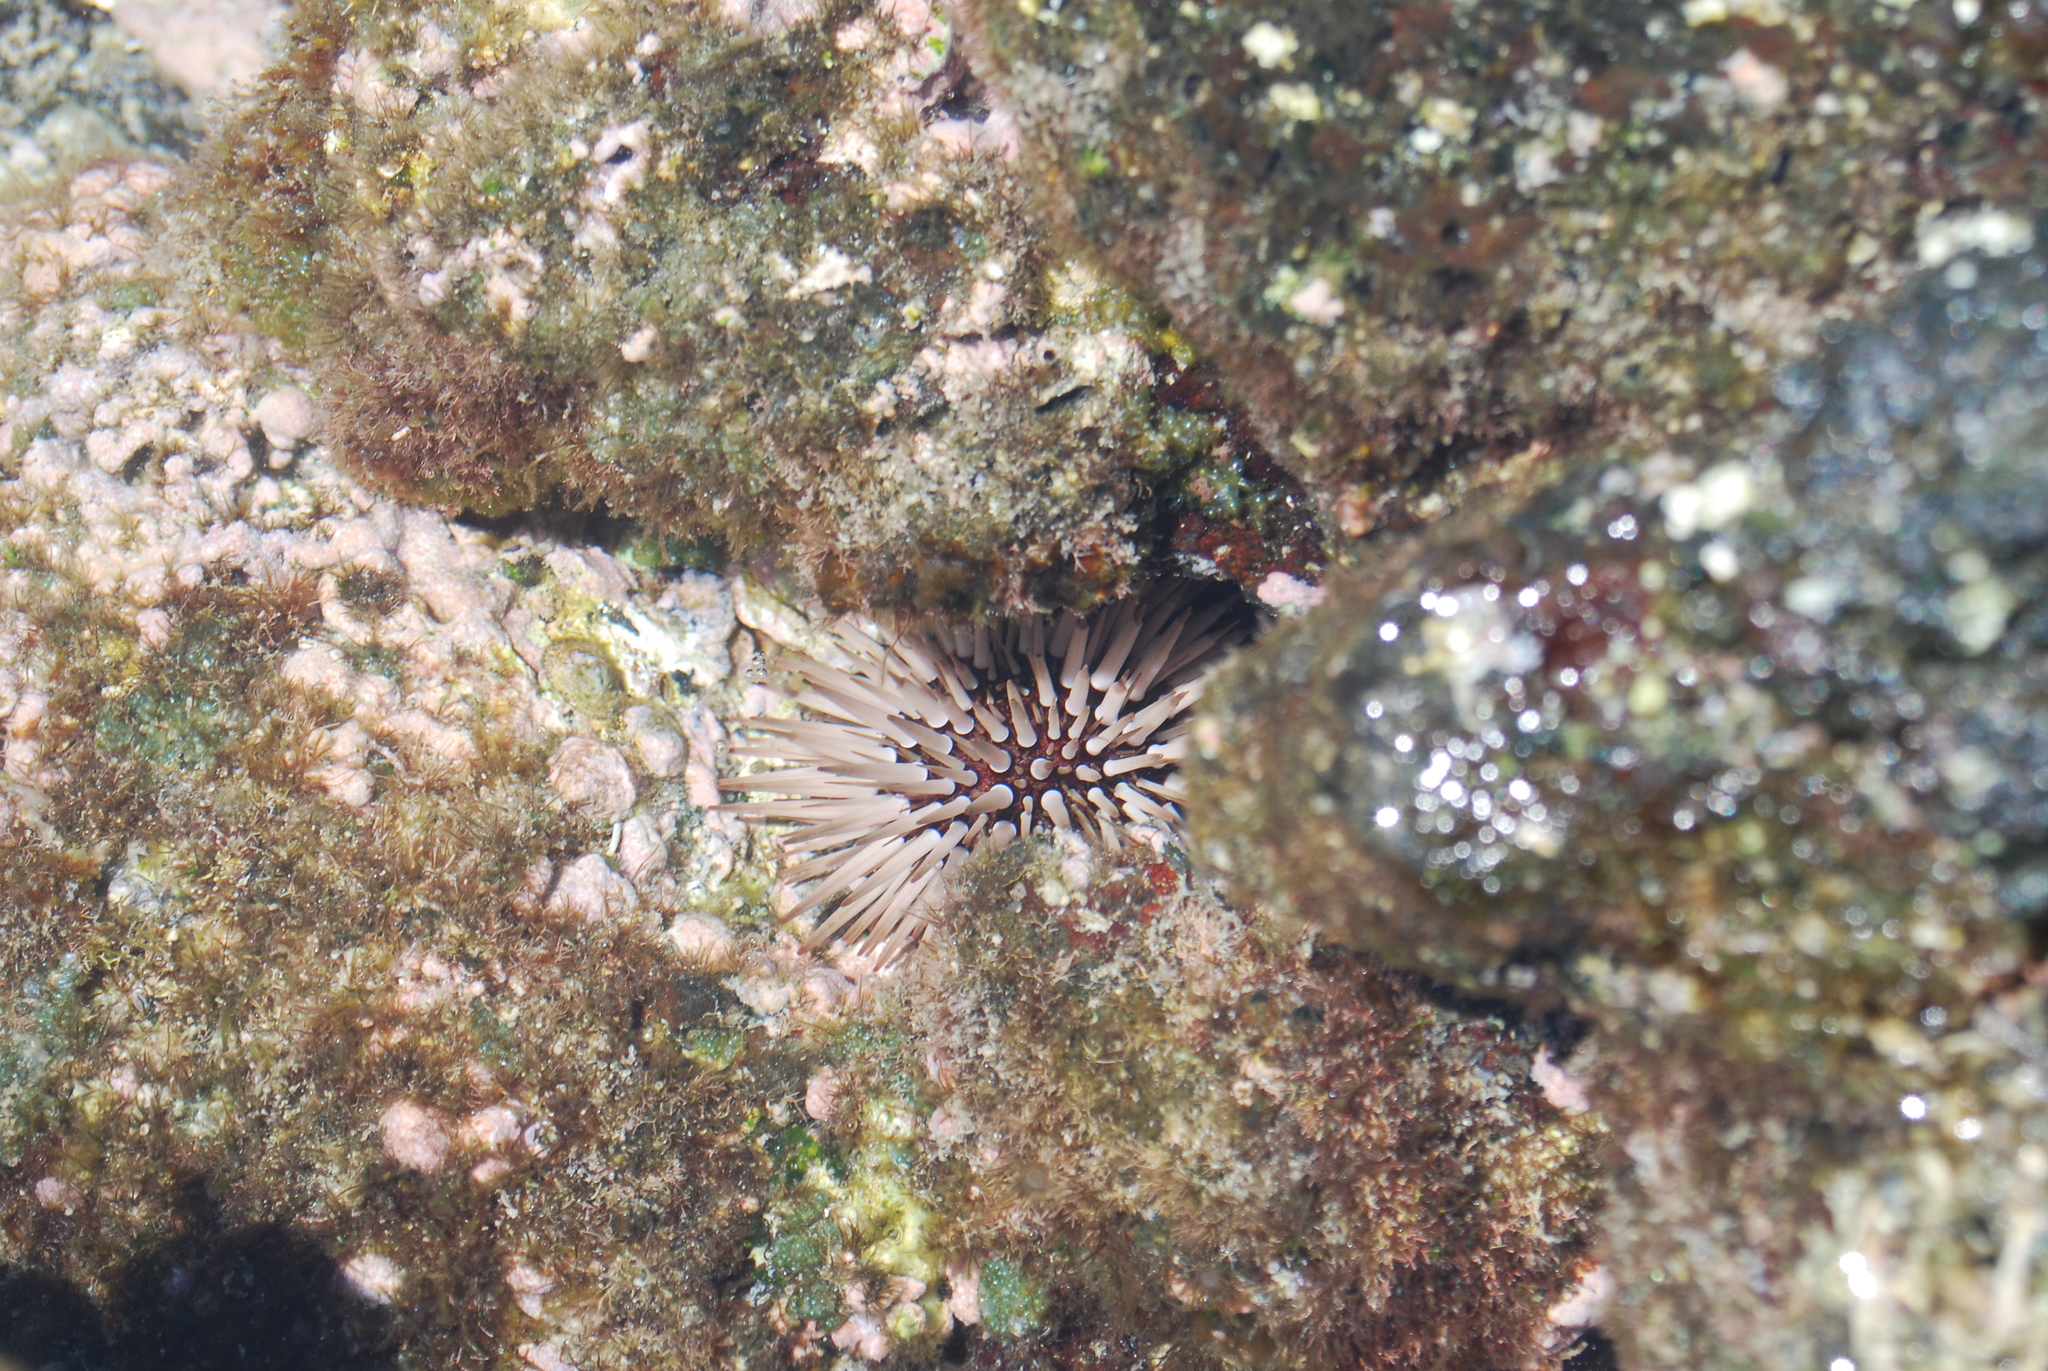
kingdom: Animalia
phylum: Echinodermata
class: Echinoidea
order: Camarodonta
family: Echinometridae
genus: Echinometra
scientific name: Echinometra mathaei
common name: Rock-boring urchin
